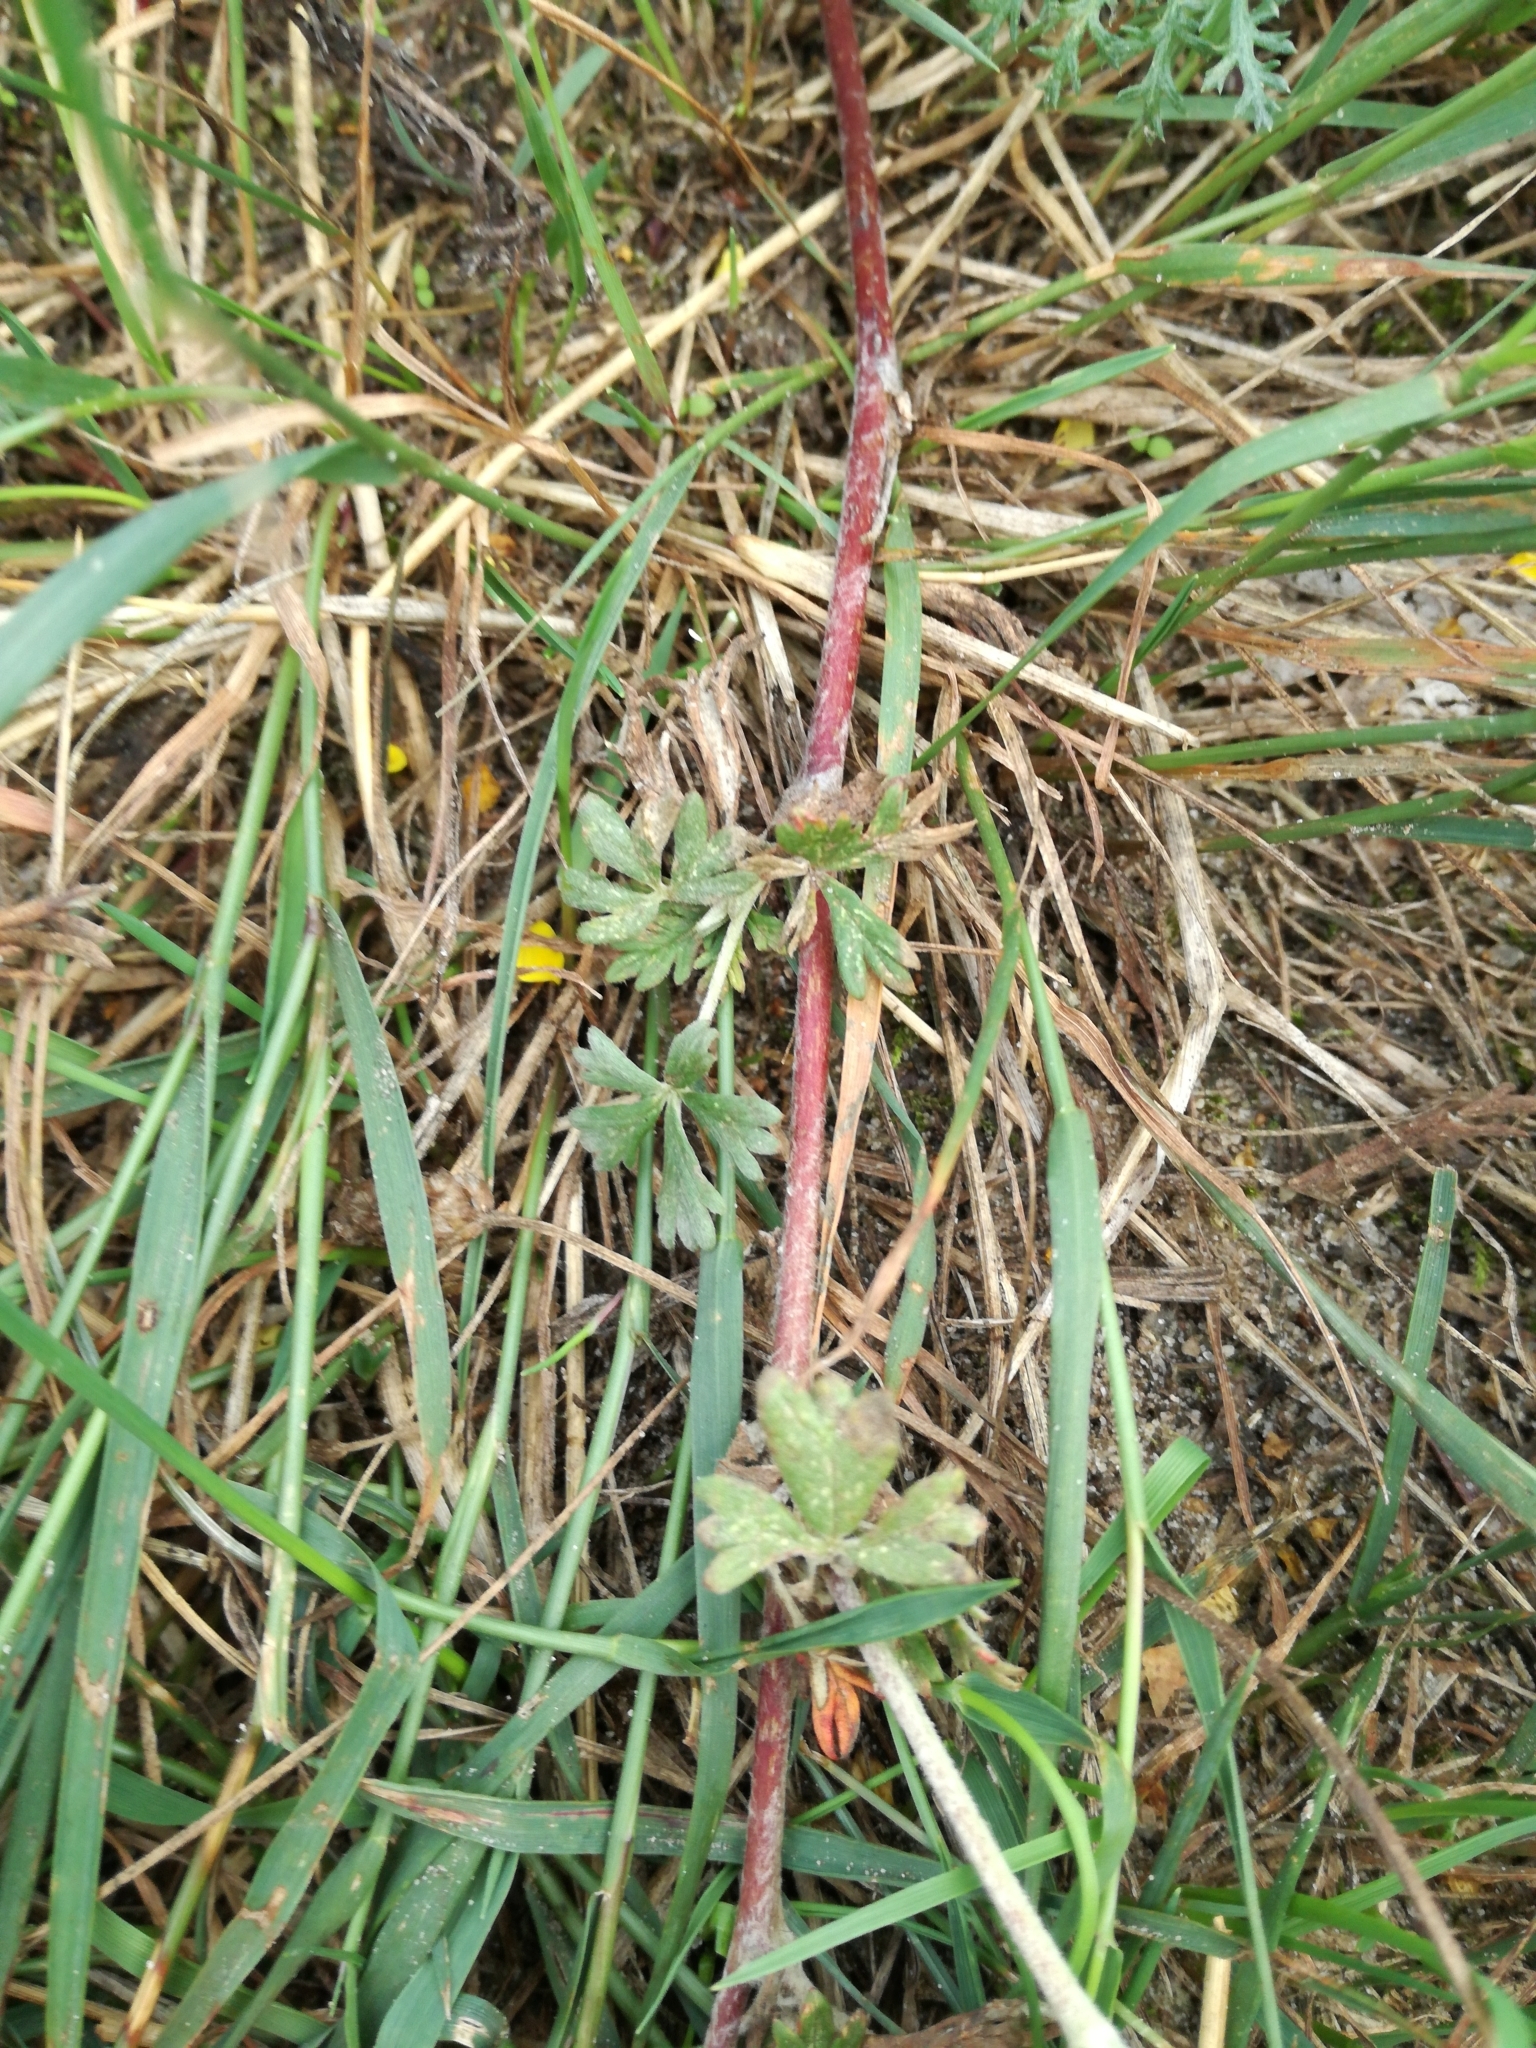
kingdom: Plantae
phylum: Tracheophyta
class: Magnoliopsida
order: Rosales
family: Rosaceae
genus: Potentilla
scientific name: Potentilla argentea
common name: Hoary cinquefoil
